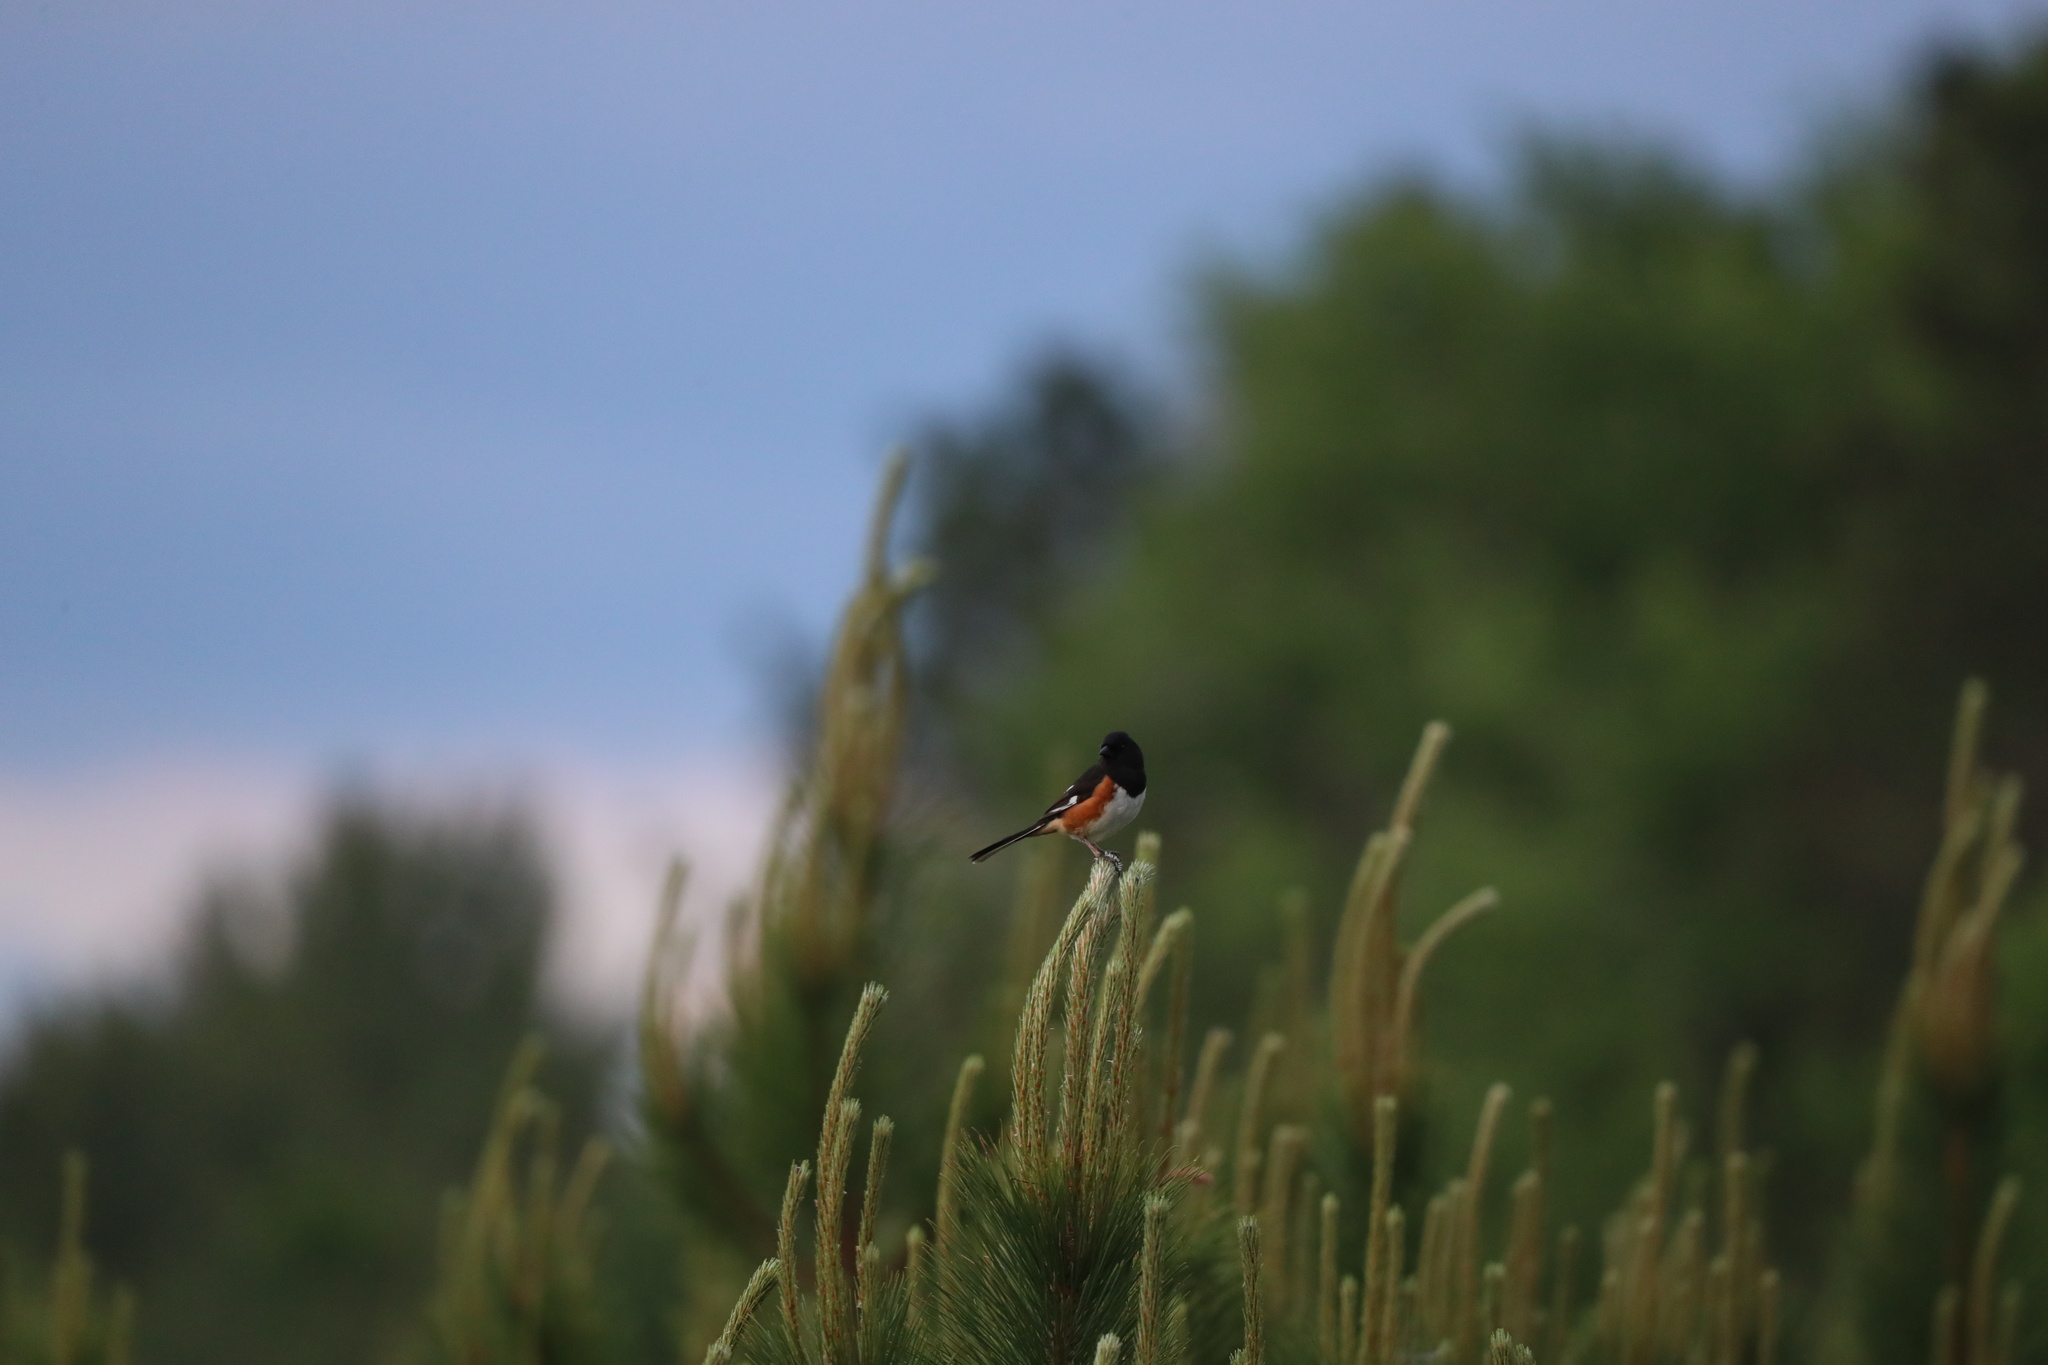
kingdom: Animalia
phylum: Chordata
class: Aves
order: Passeriformes
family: Passerellidae
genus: Pipilo
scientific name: Pipilo erythrophthalmus
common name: Eastern towhee
